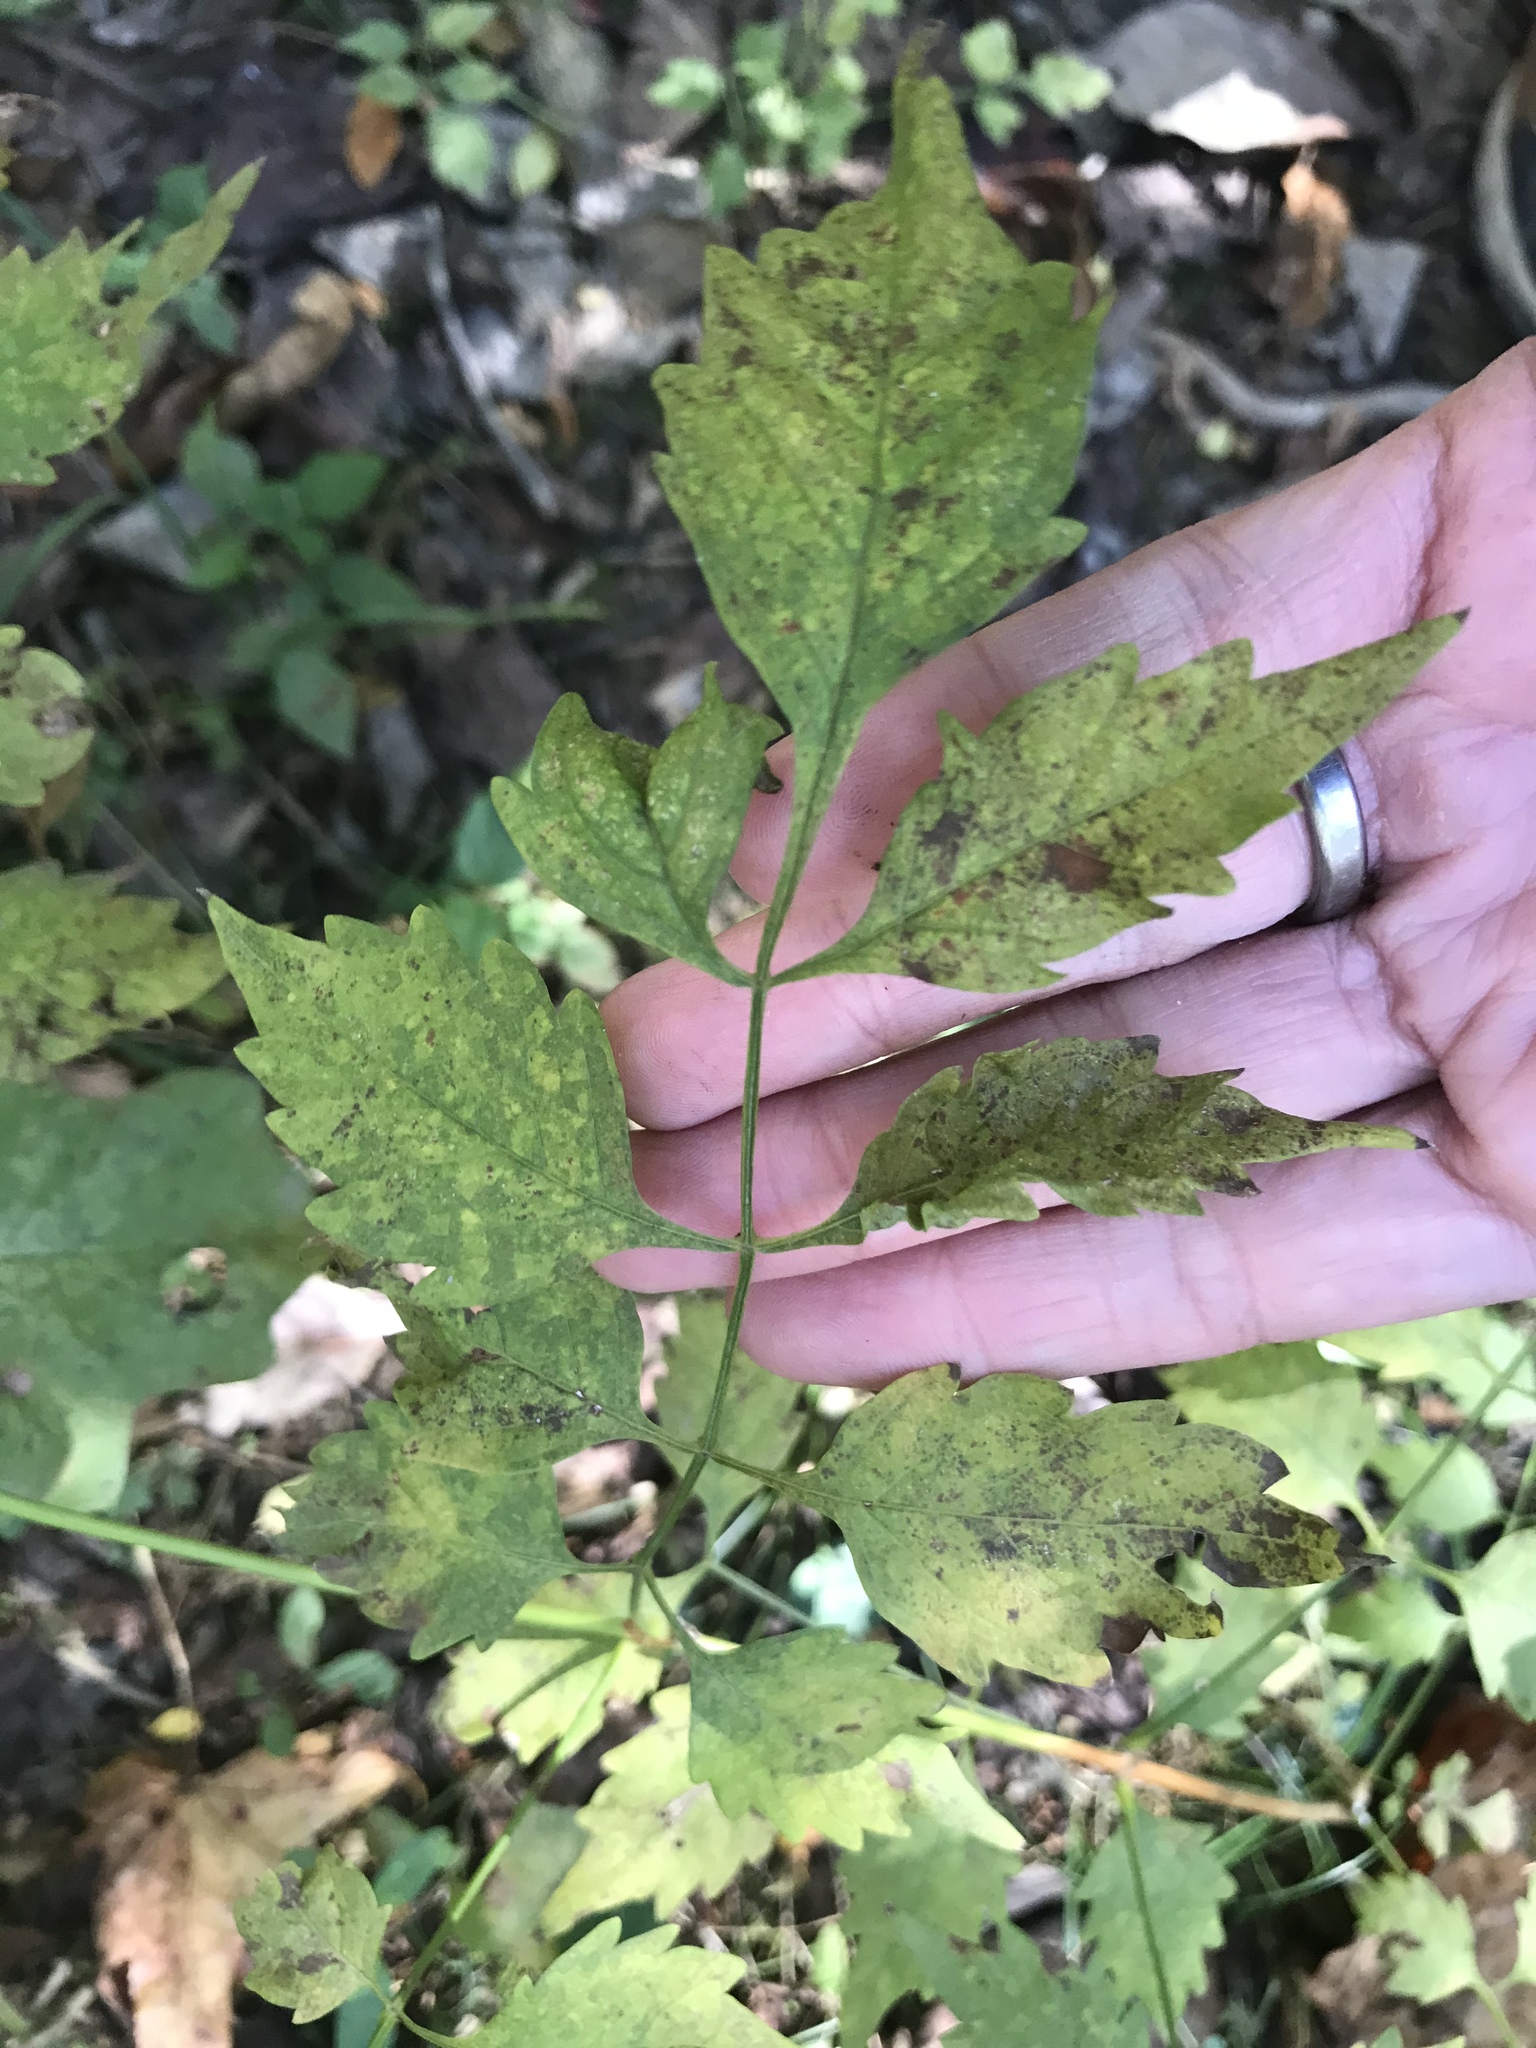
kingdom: Plantae
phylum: Tracheophyta
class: Magnoliopsida
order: Lamiales
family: Bignoniaceae
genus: Campsis
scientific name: Campsis radicans
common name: Trumpet-creeper
